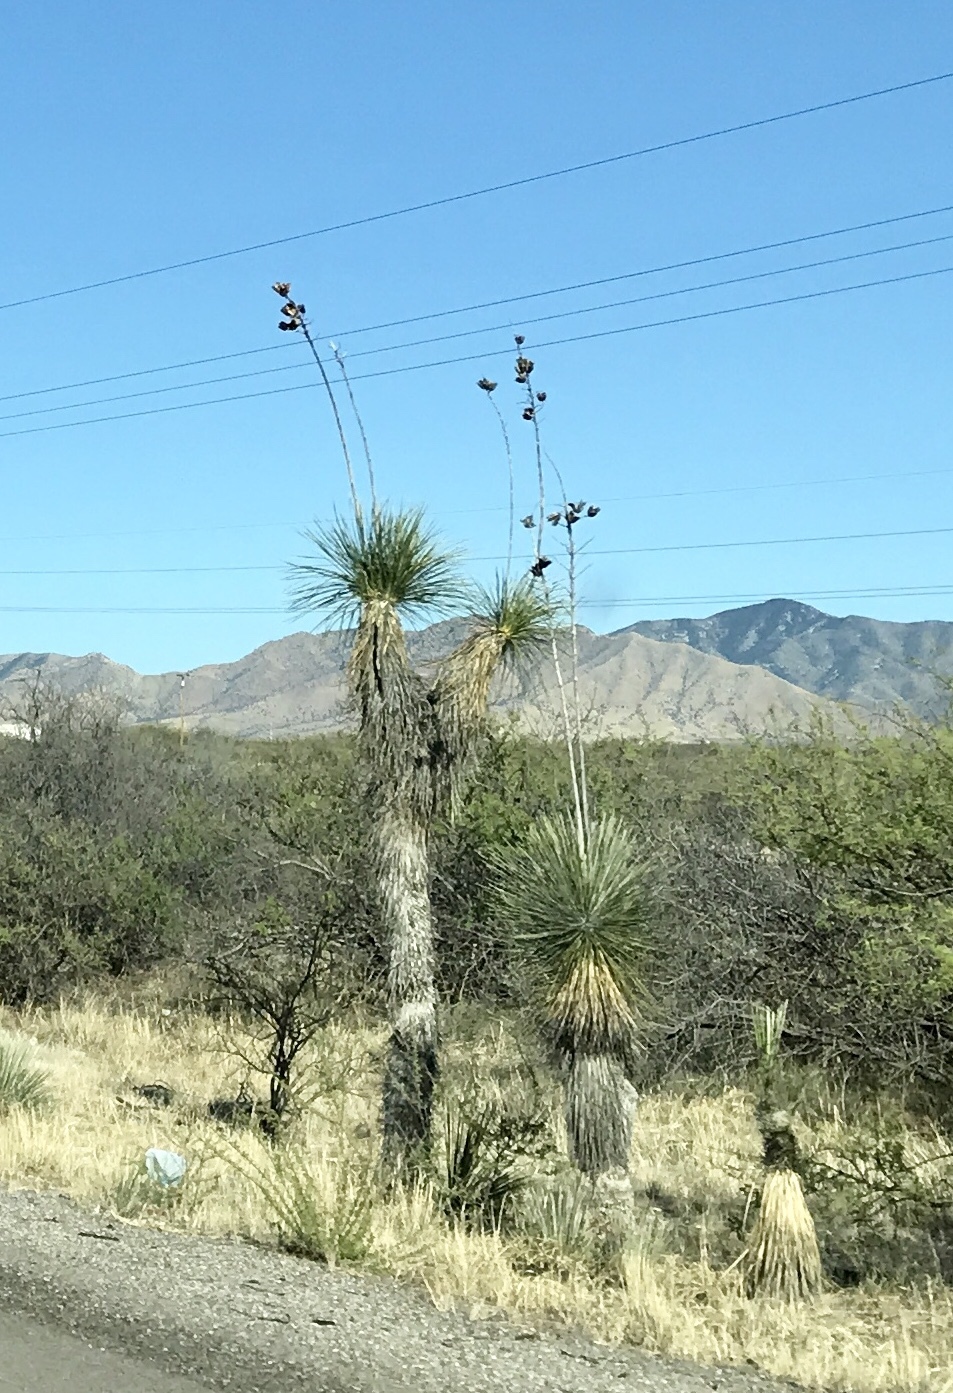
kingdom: Plantae
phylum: Tracheophyta
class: Liliopsida
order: Asparagales
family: Asparagaceae
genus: Yucca
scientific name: Yucca elata
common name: Palmella
